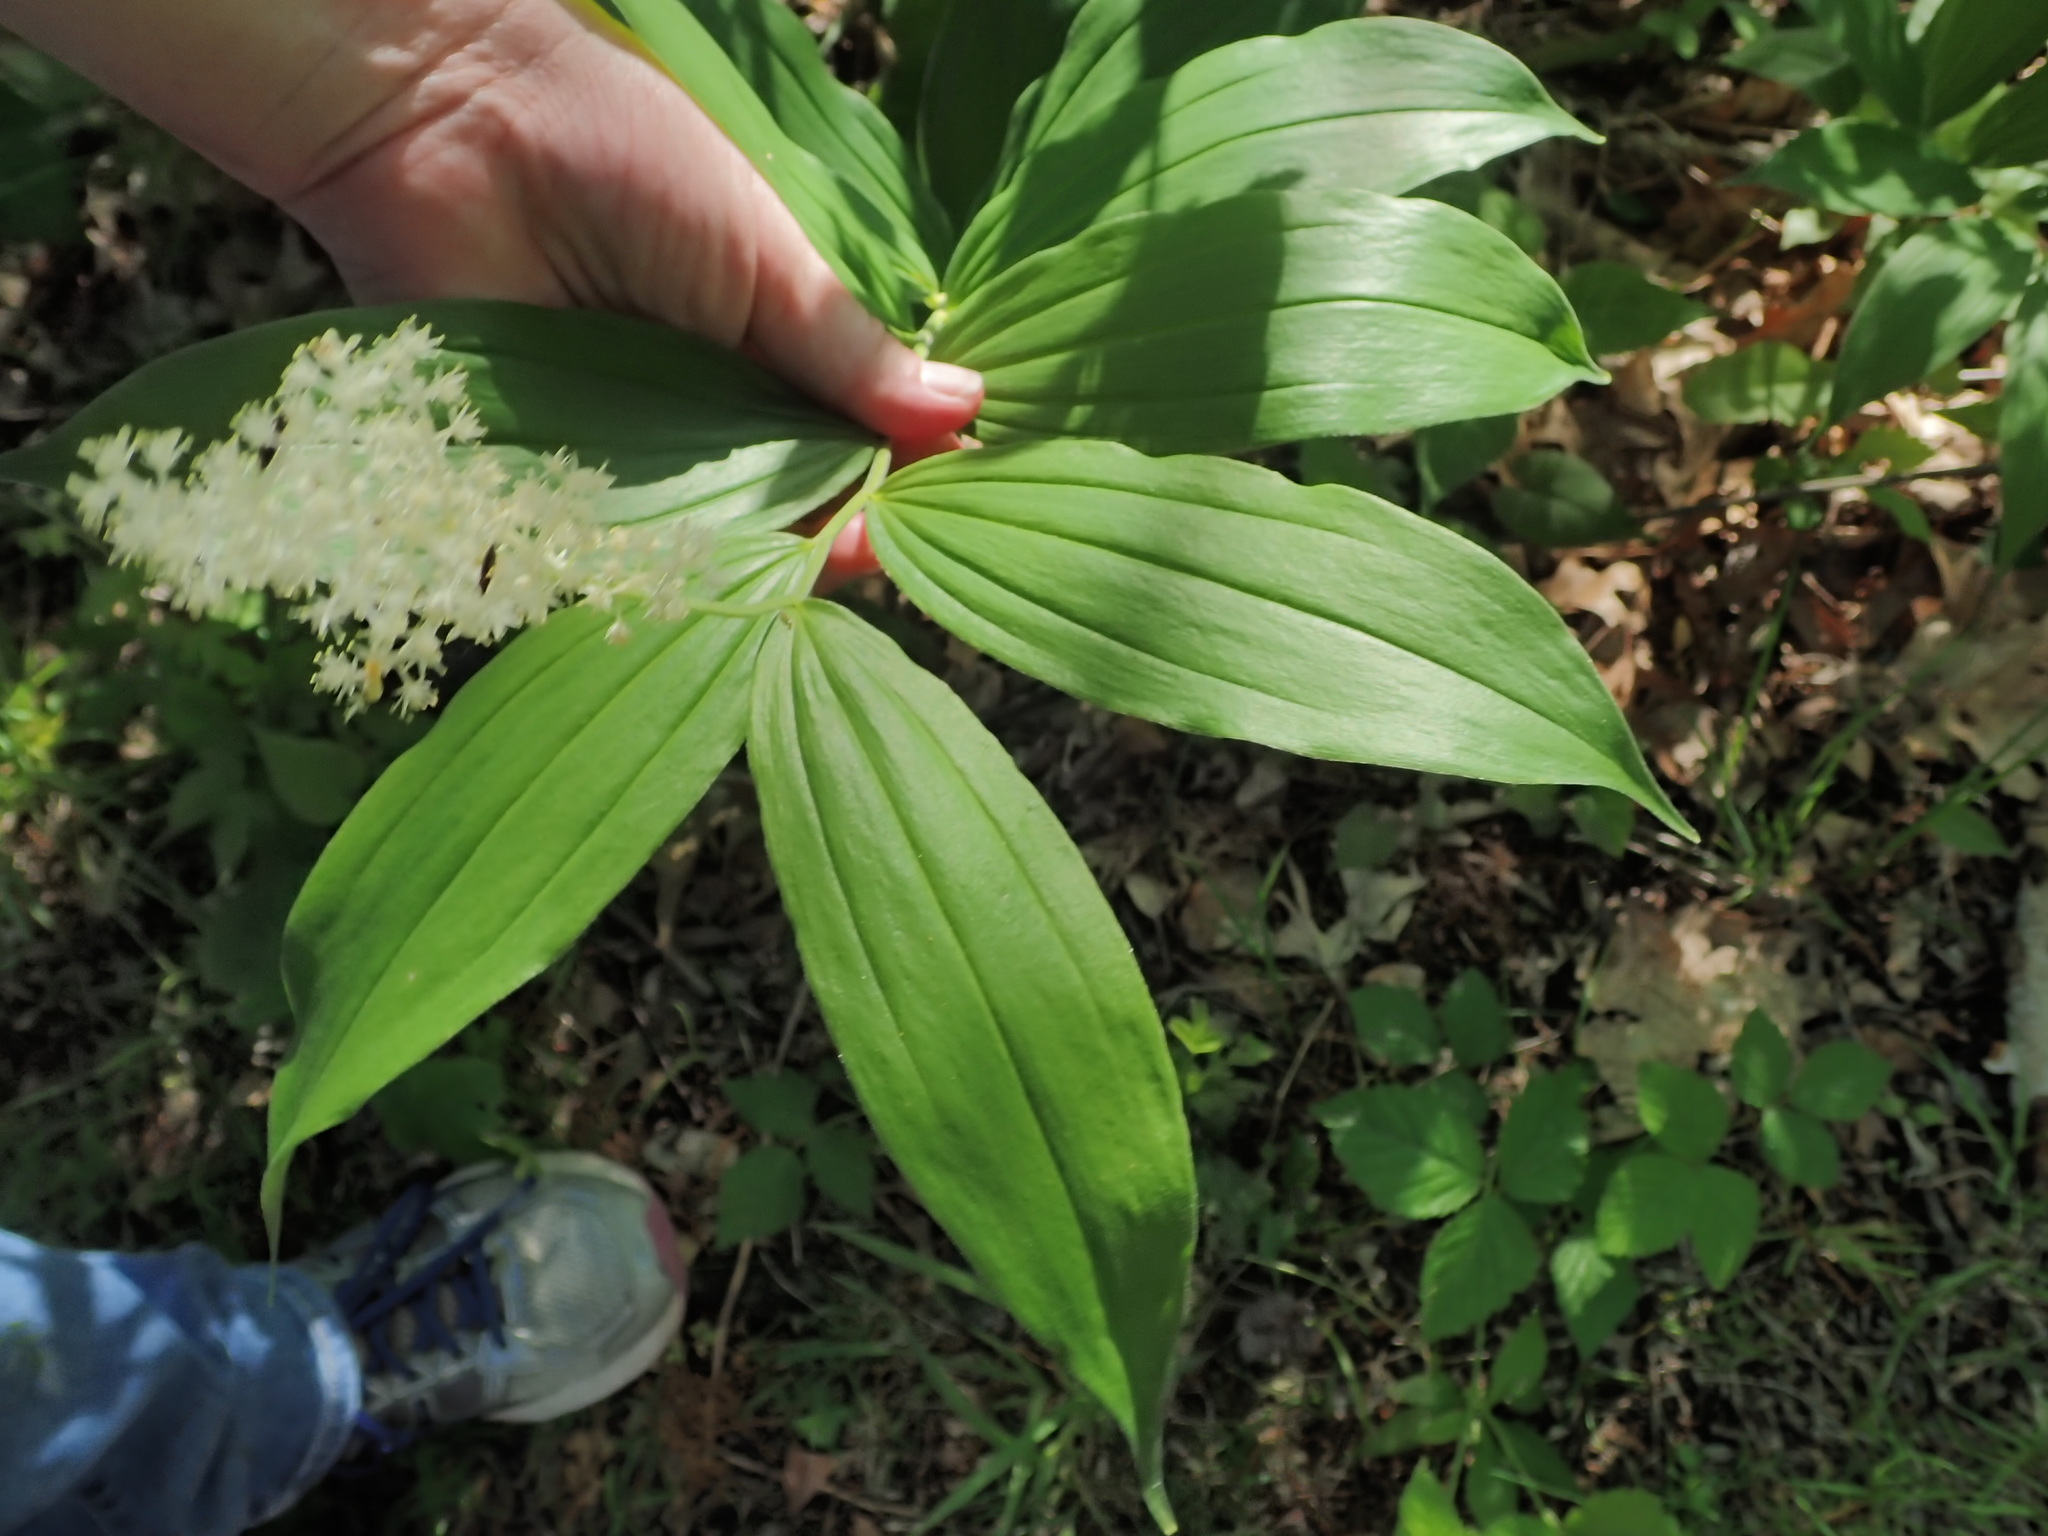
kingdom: Plantae
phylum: Tracheophyta
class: Liliopsida
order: Asparagales
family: Asparagaceae
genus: Maianthemum
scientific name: Maianthemum racemosum
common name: False spikenard
